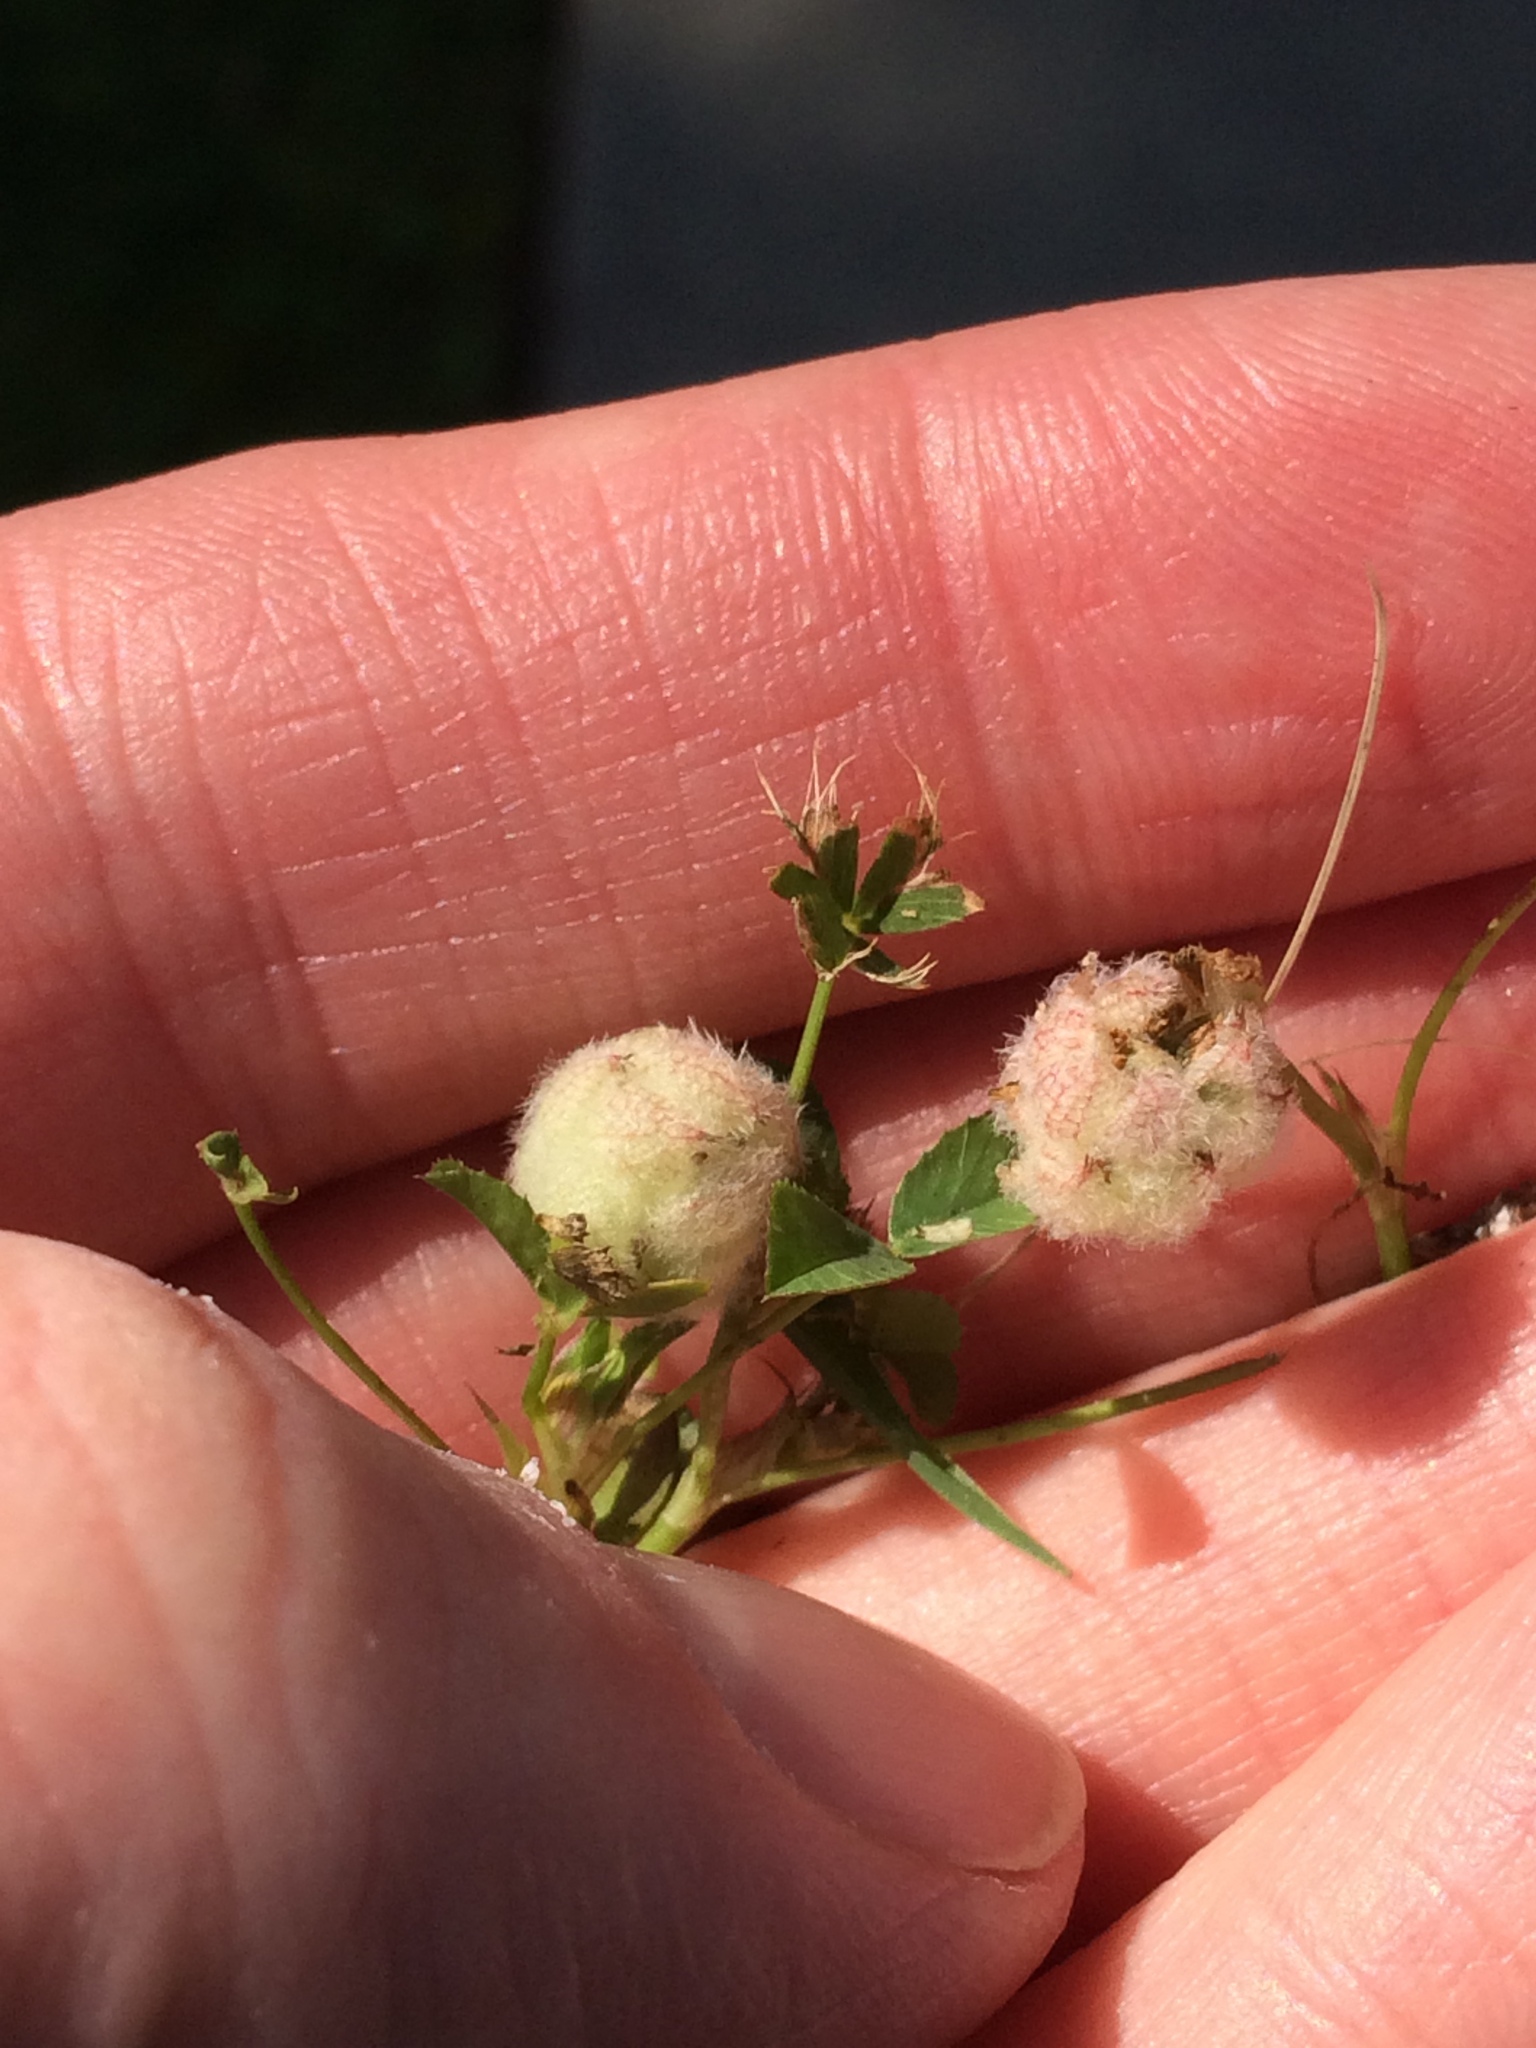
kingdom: Plantae
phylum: Tracheophyta
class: Magnoliopsida
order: Fabales
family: Fabaceae
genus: Trifolium
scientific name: Trifolium tomentosum
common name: Woolly clover
